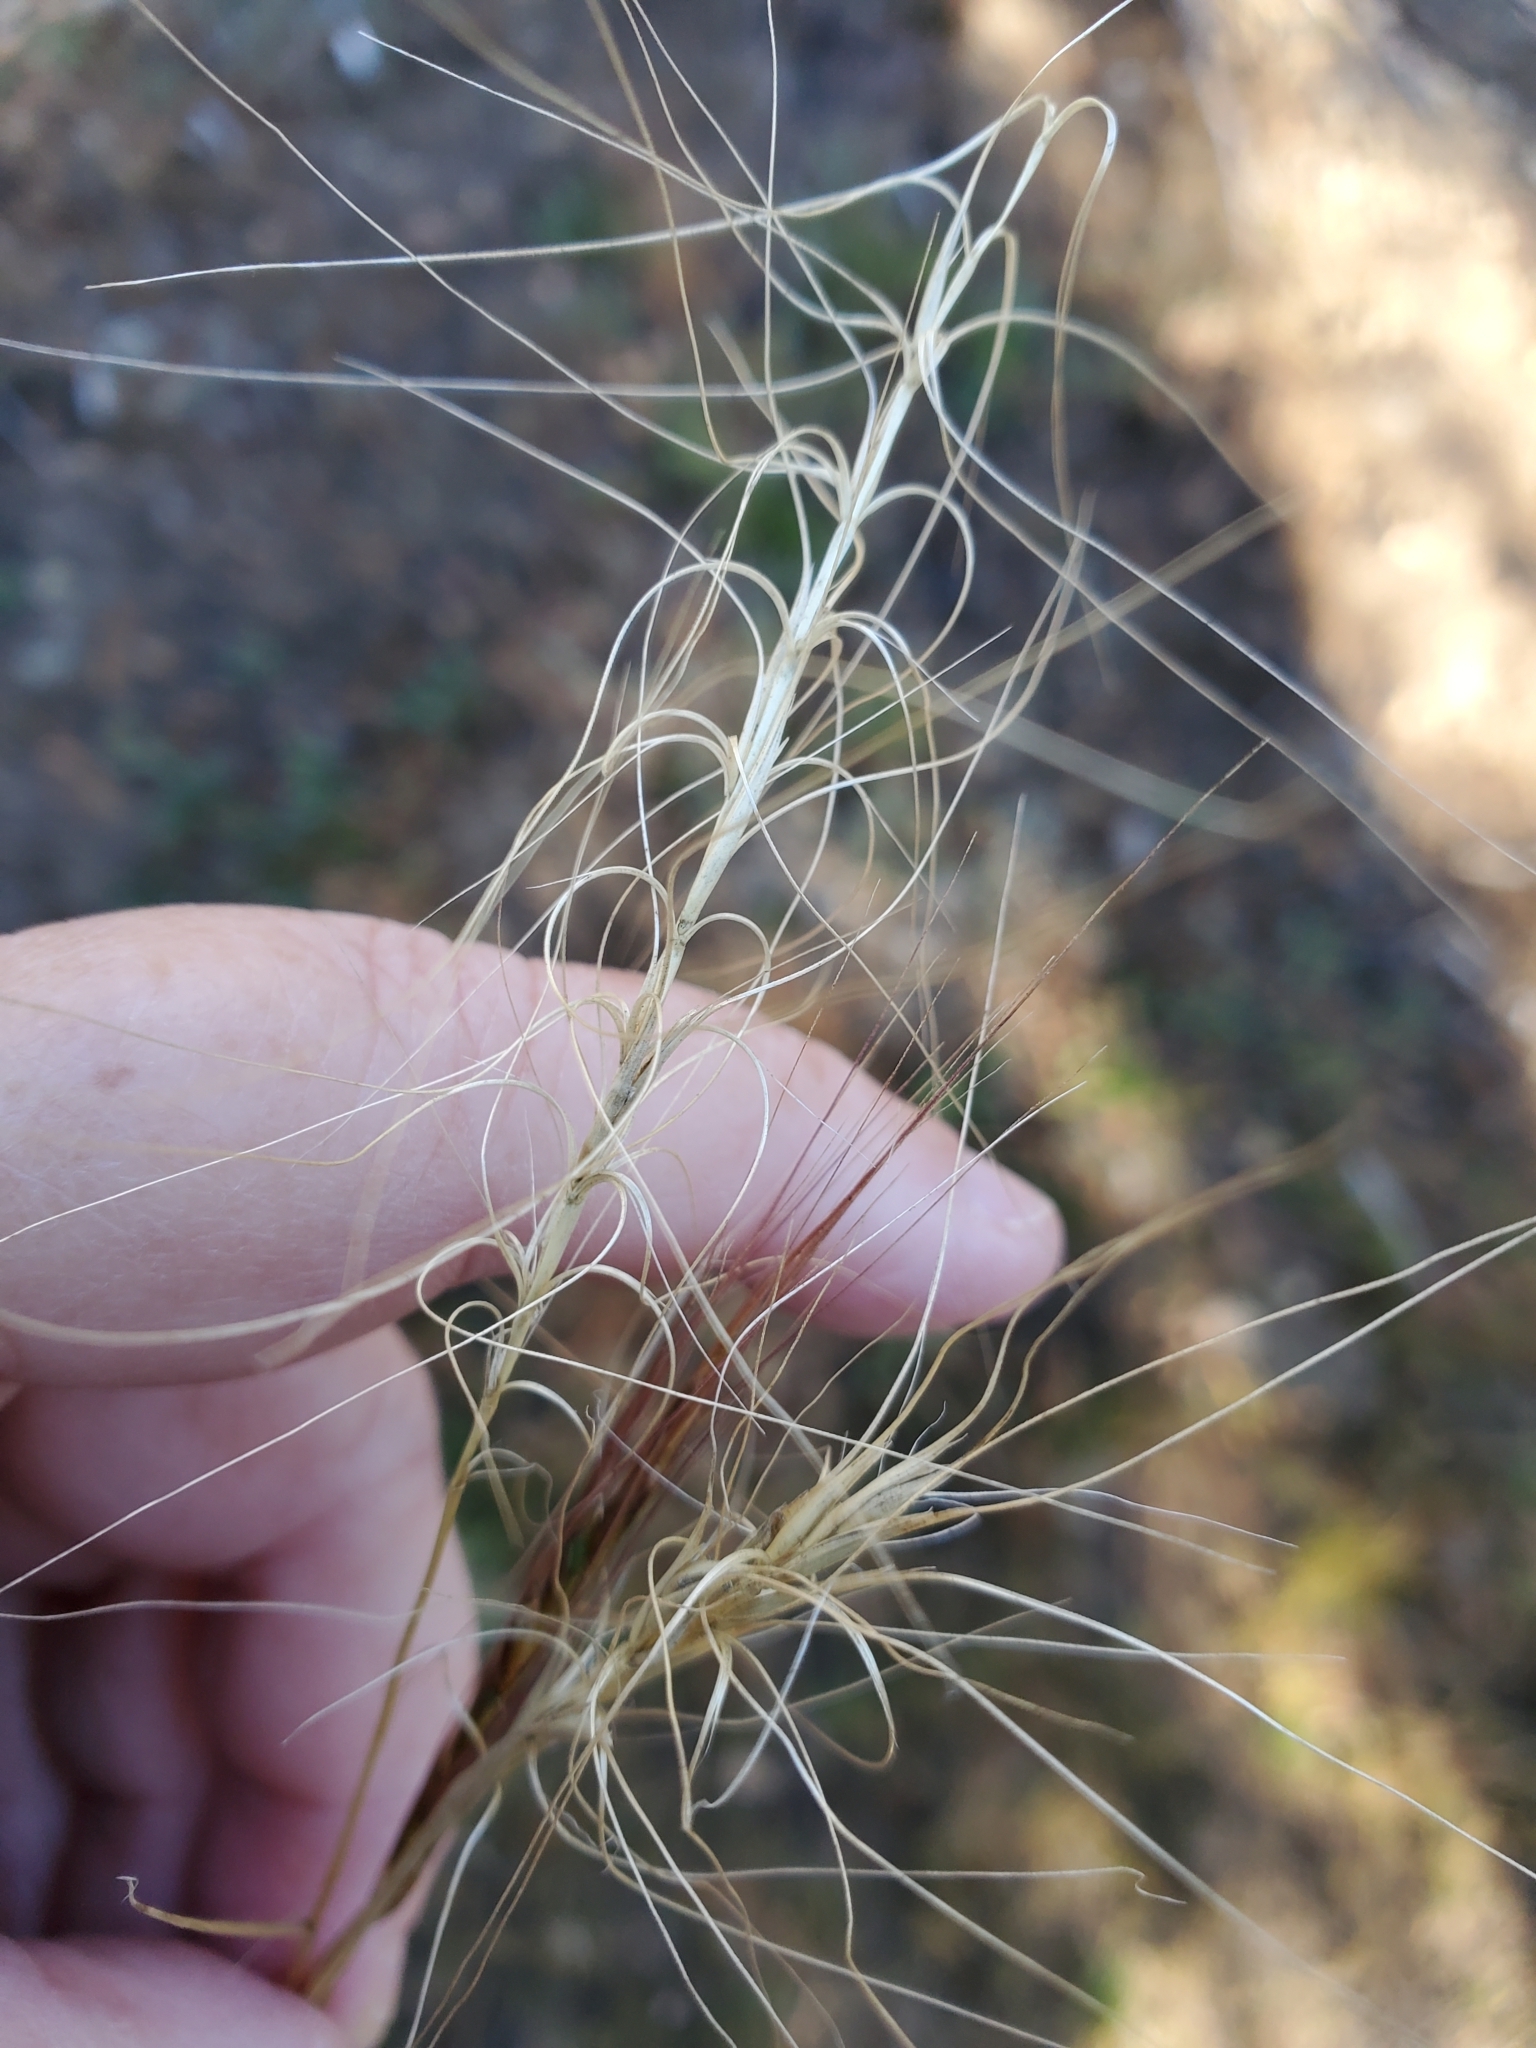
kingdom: Plantae
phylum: Tracheophyta
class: Liliopsida
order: Poales
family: Poaceae
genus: Elymus
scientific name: Elymus elymoides
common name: Bottlebrush squirreltail
